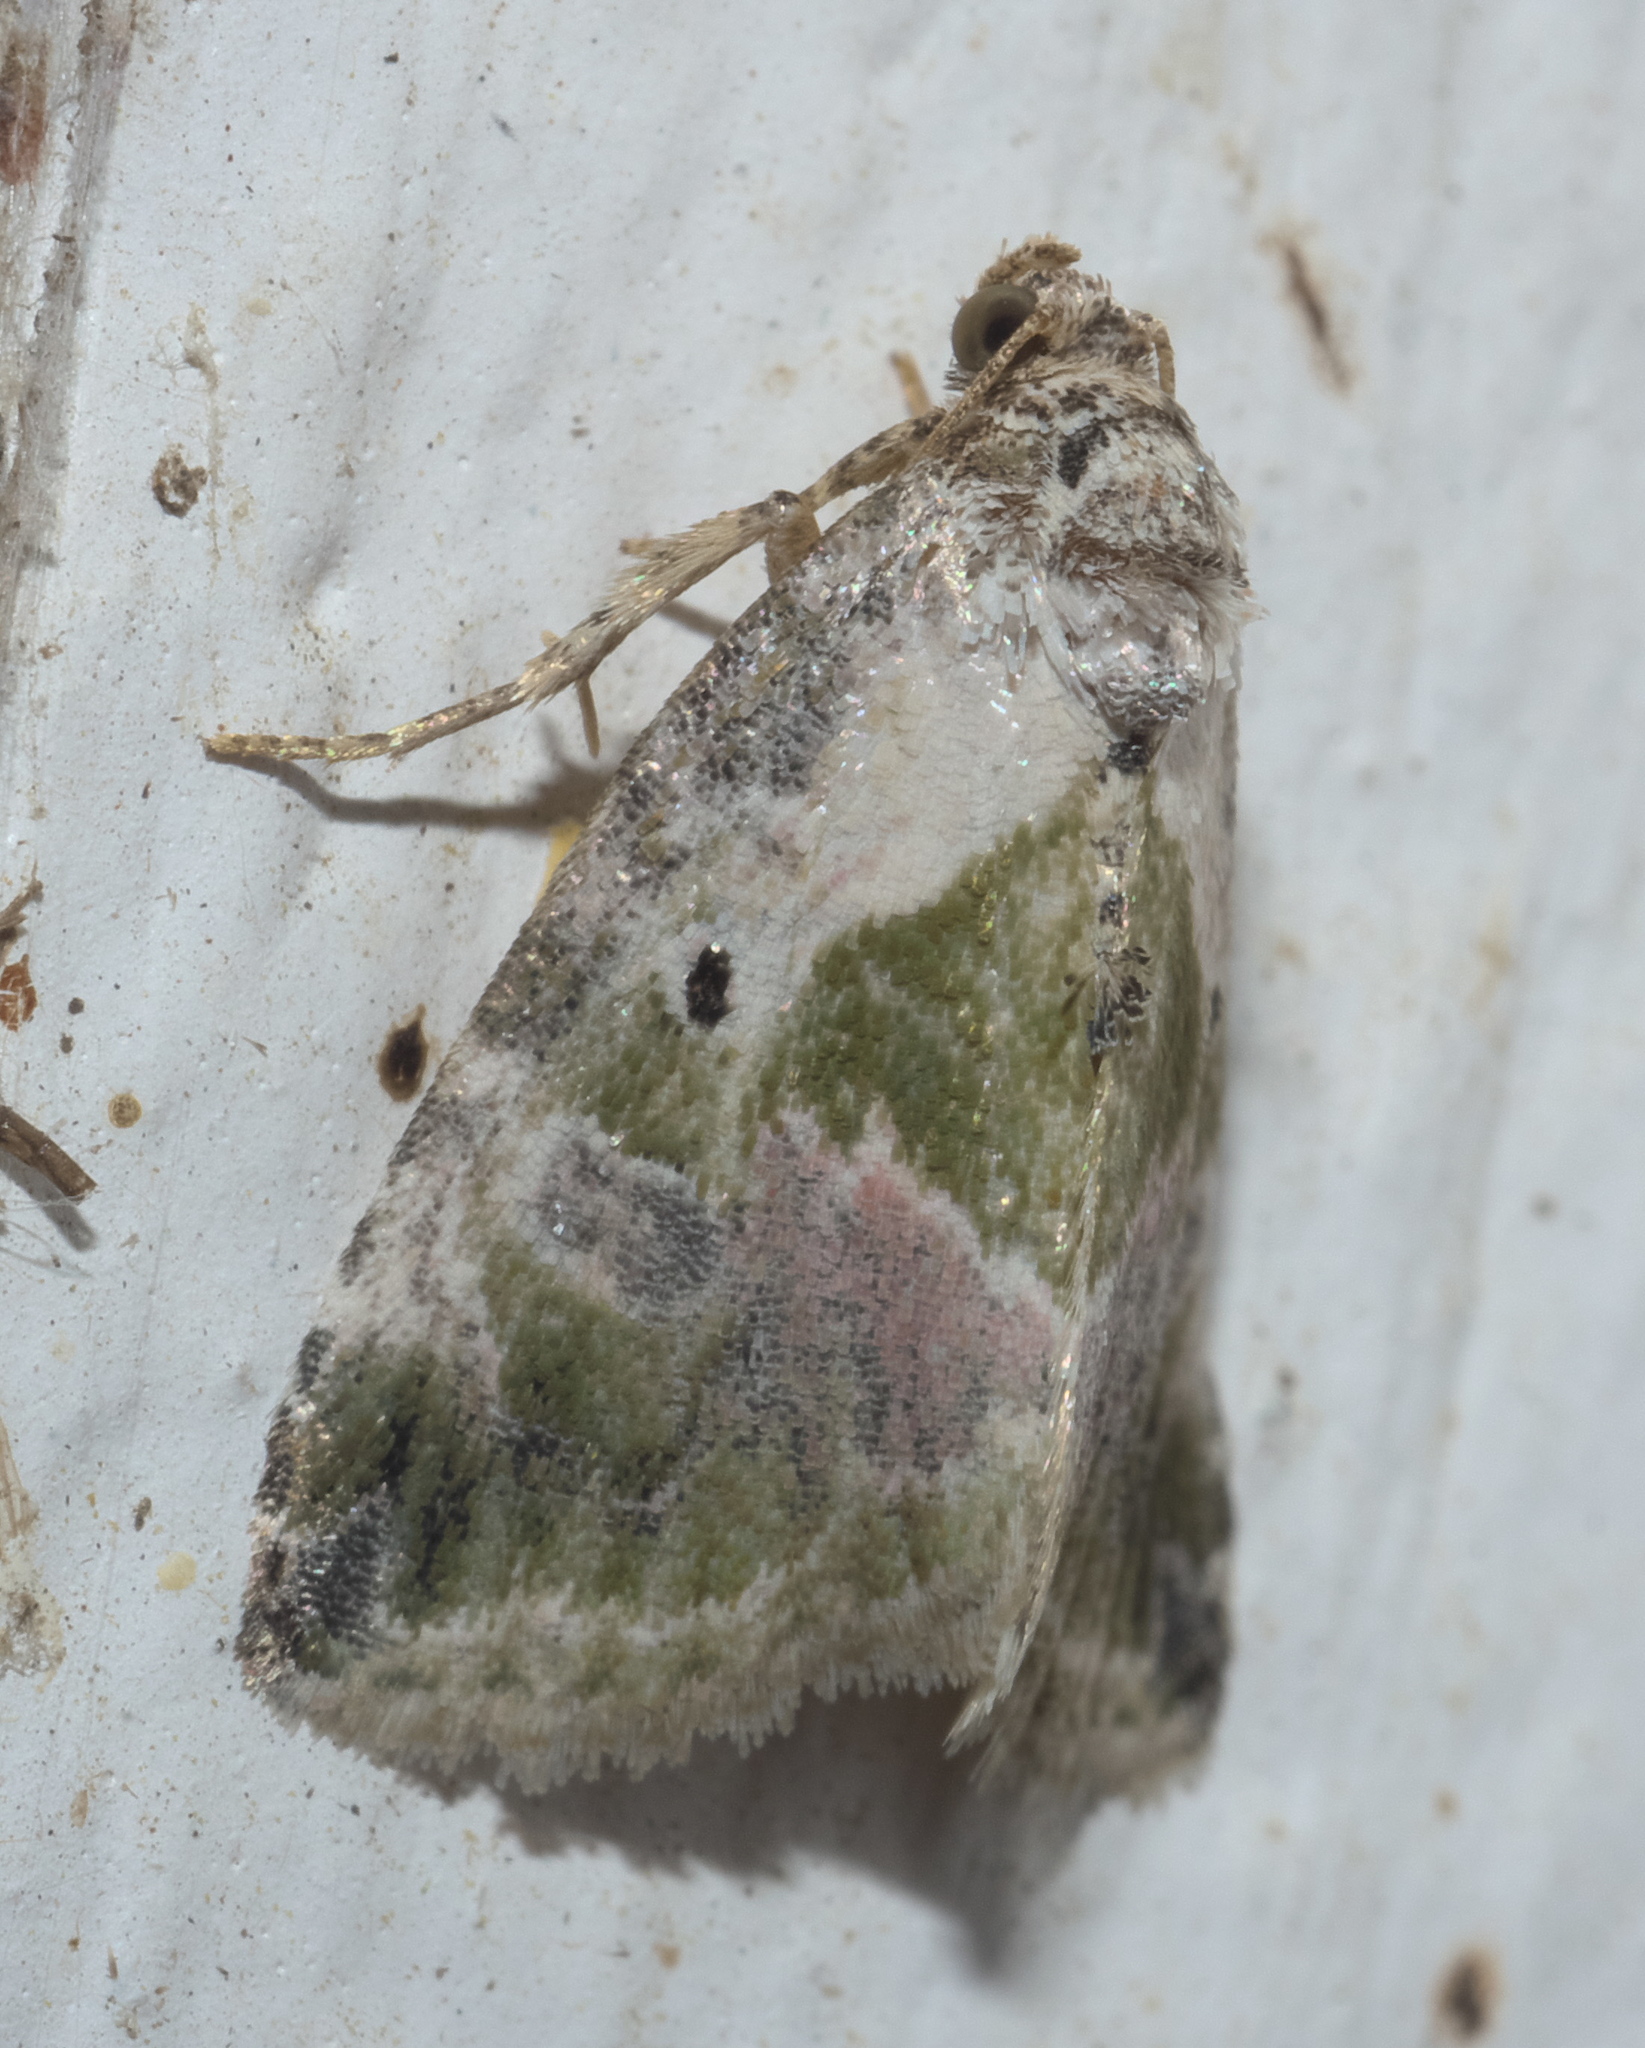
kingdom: Animalia
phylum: Arthropoda
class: Insecta
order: Lepidoptera
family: Noctuidae
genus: Maliattha
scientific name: Maliattha synochitis
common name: Black-dotted glyph
